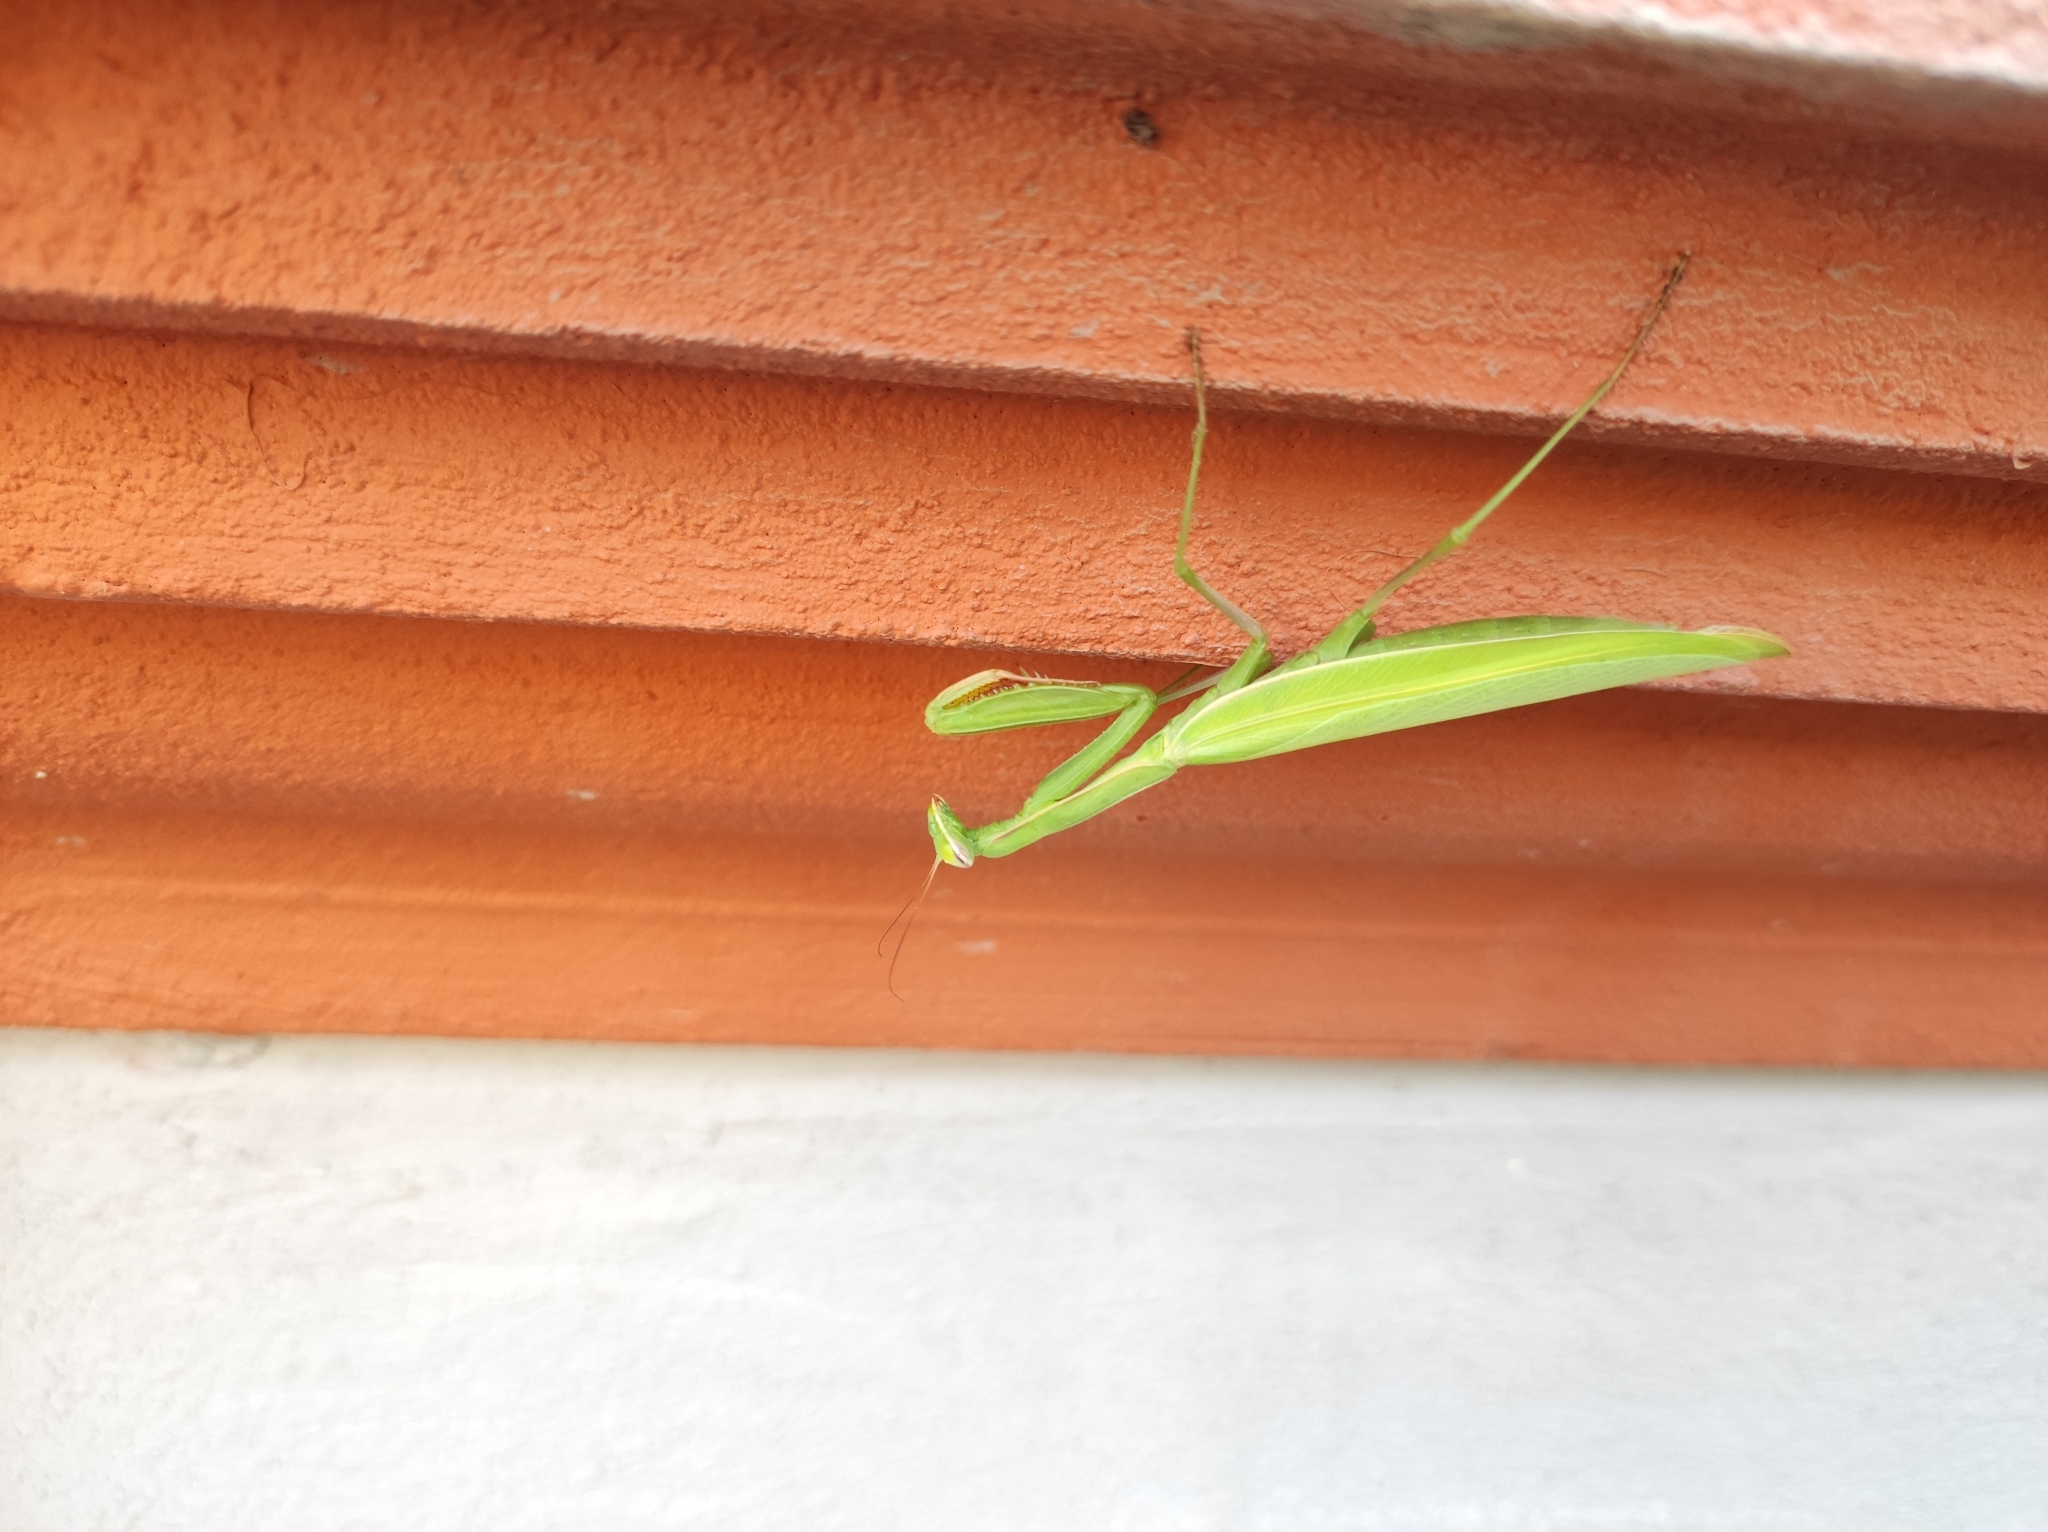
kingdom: Animalia
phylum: Arthropoda
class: Insecta
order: Mantodea
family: Mantidae
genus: Mantis
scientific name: Mantis religiosa
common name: Praying mantis
